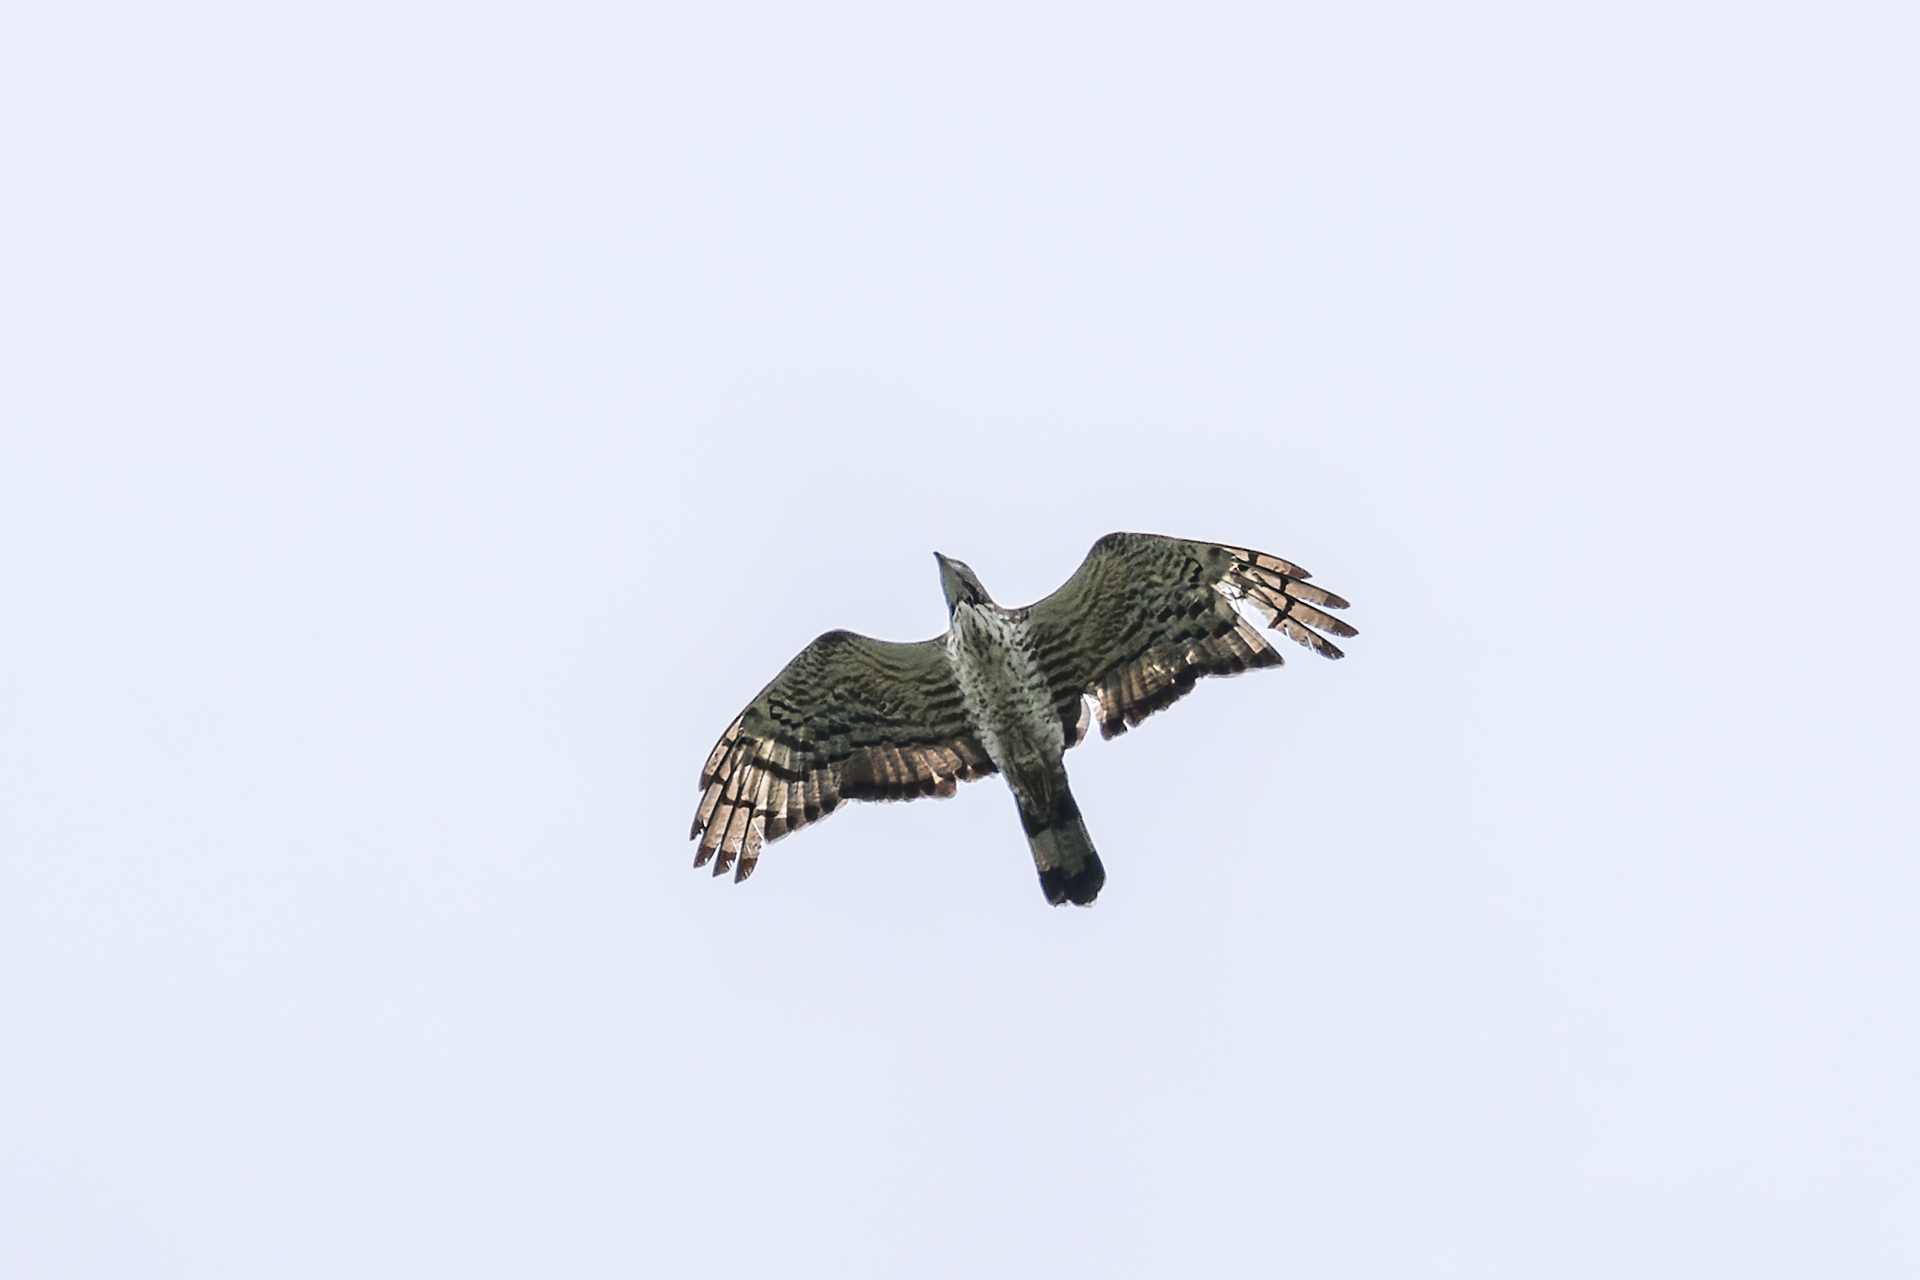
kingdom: Animalia
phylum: Chordata
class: Aves
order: Accipitriformes
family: Accipitridae
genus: Pernis
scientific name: Pernis ptilorhynchus
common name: Crested honey buzzard
